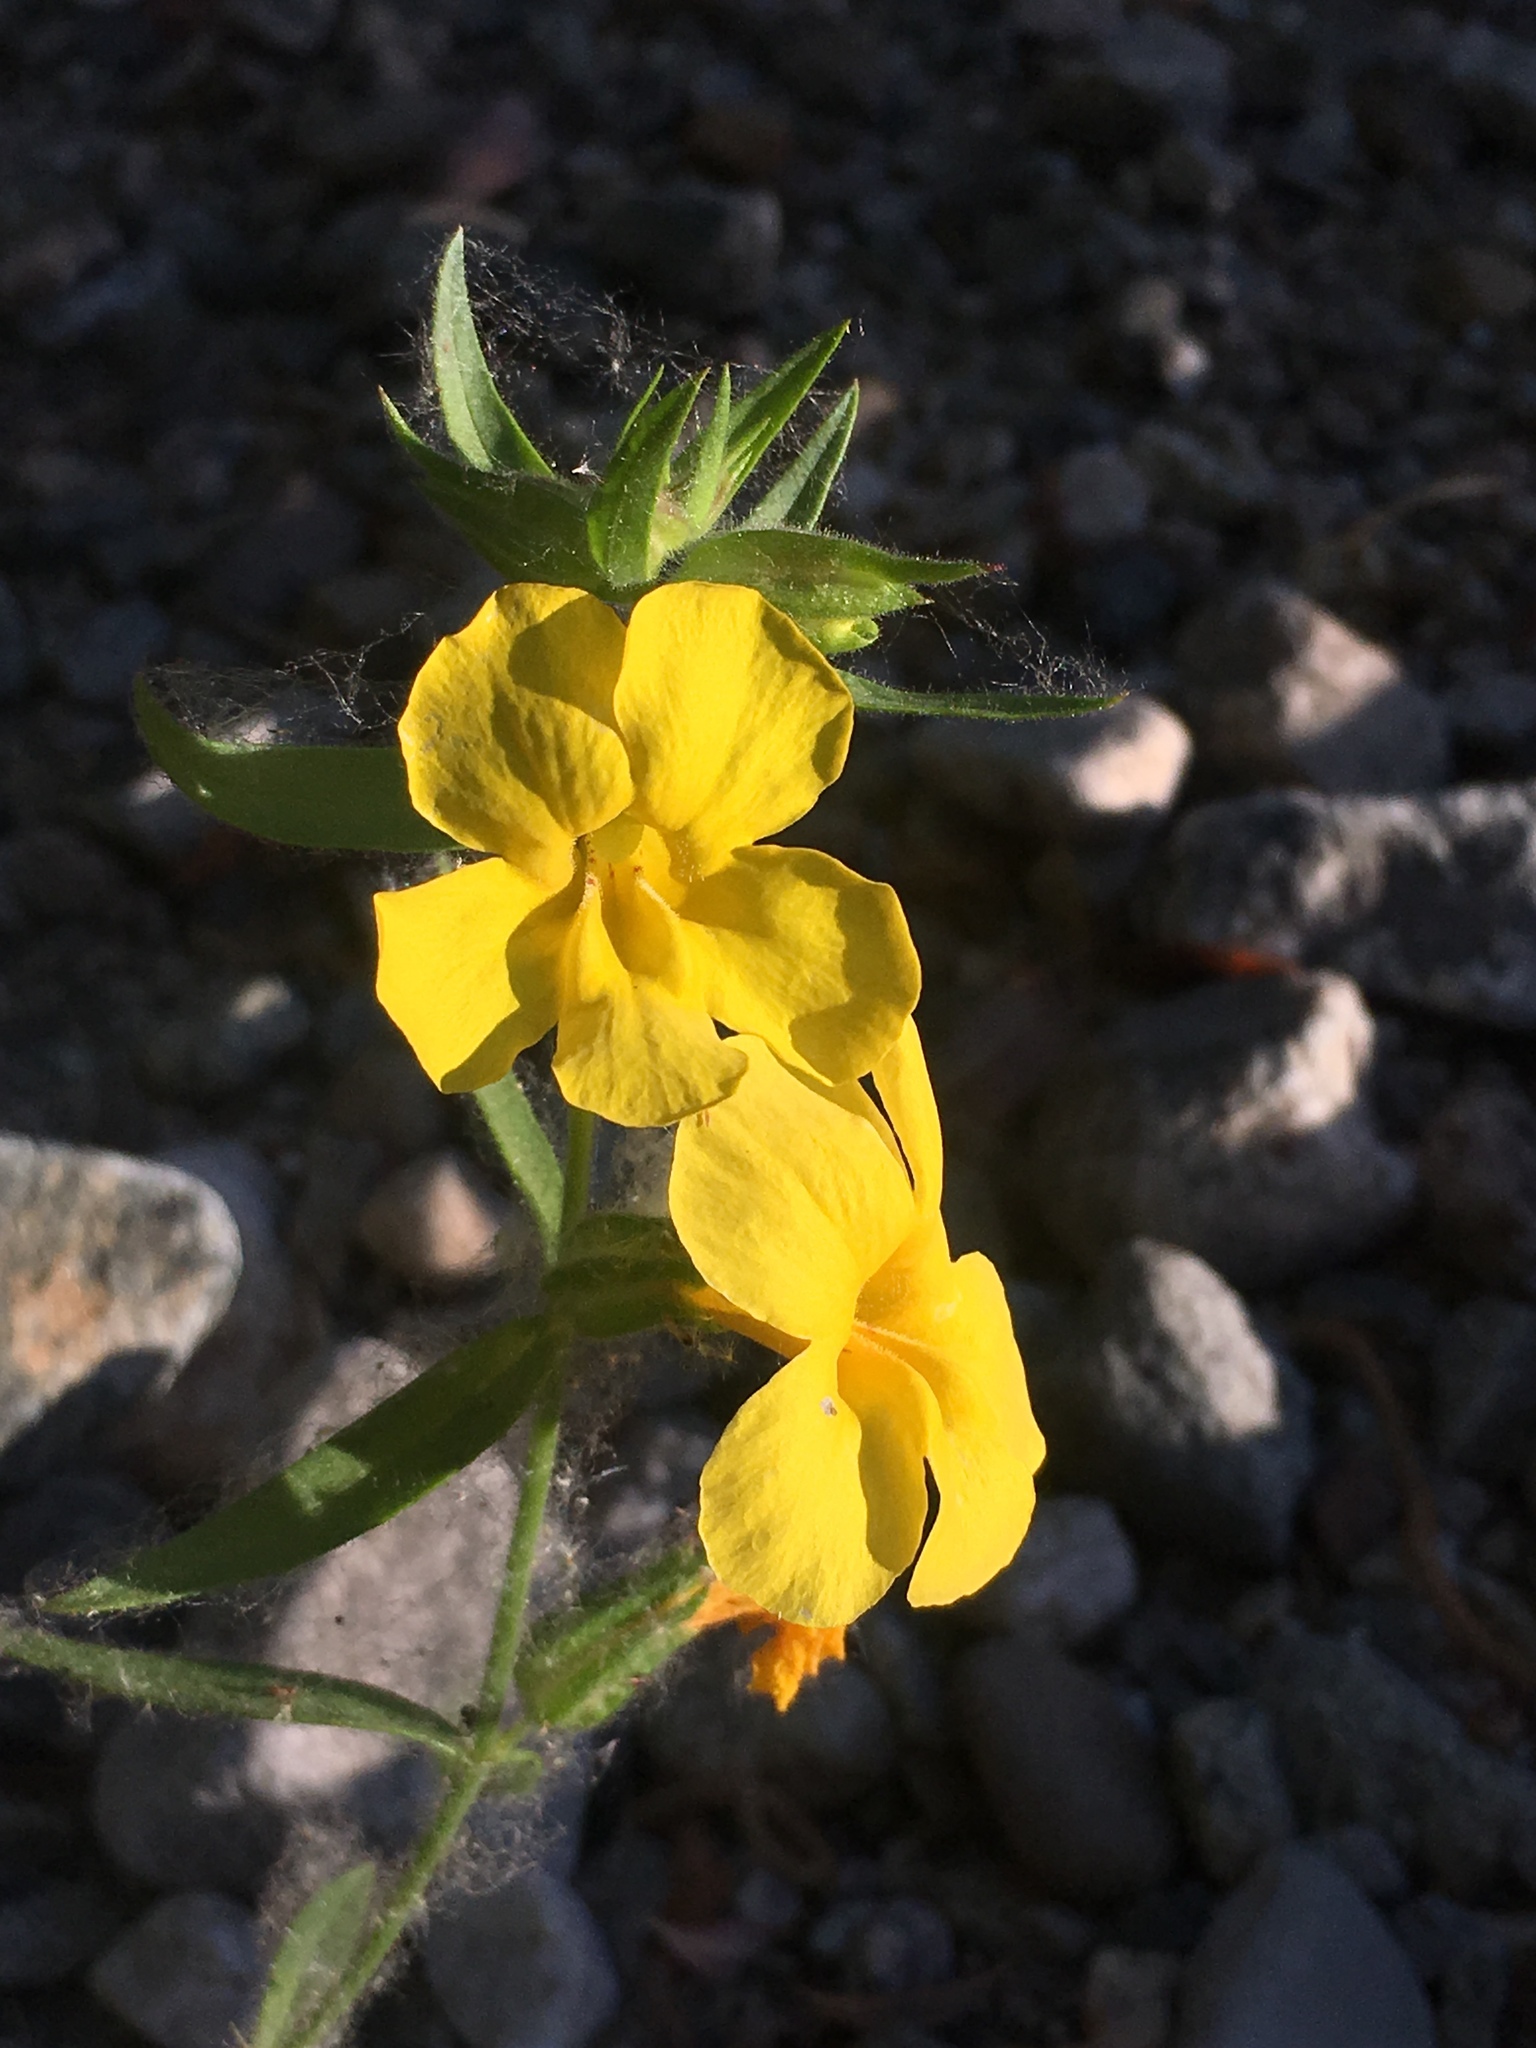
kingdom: Plantae
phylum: Tracheophyta
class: Magnoliopsida
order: Lamiales
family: Phrymaceae
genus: Diplacus
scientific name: Diplacus brevipes
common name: Wide-throat yellow monkey-flower
